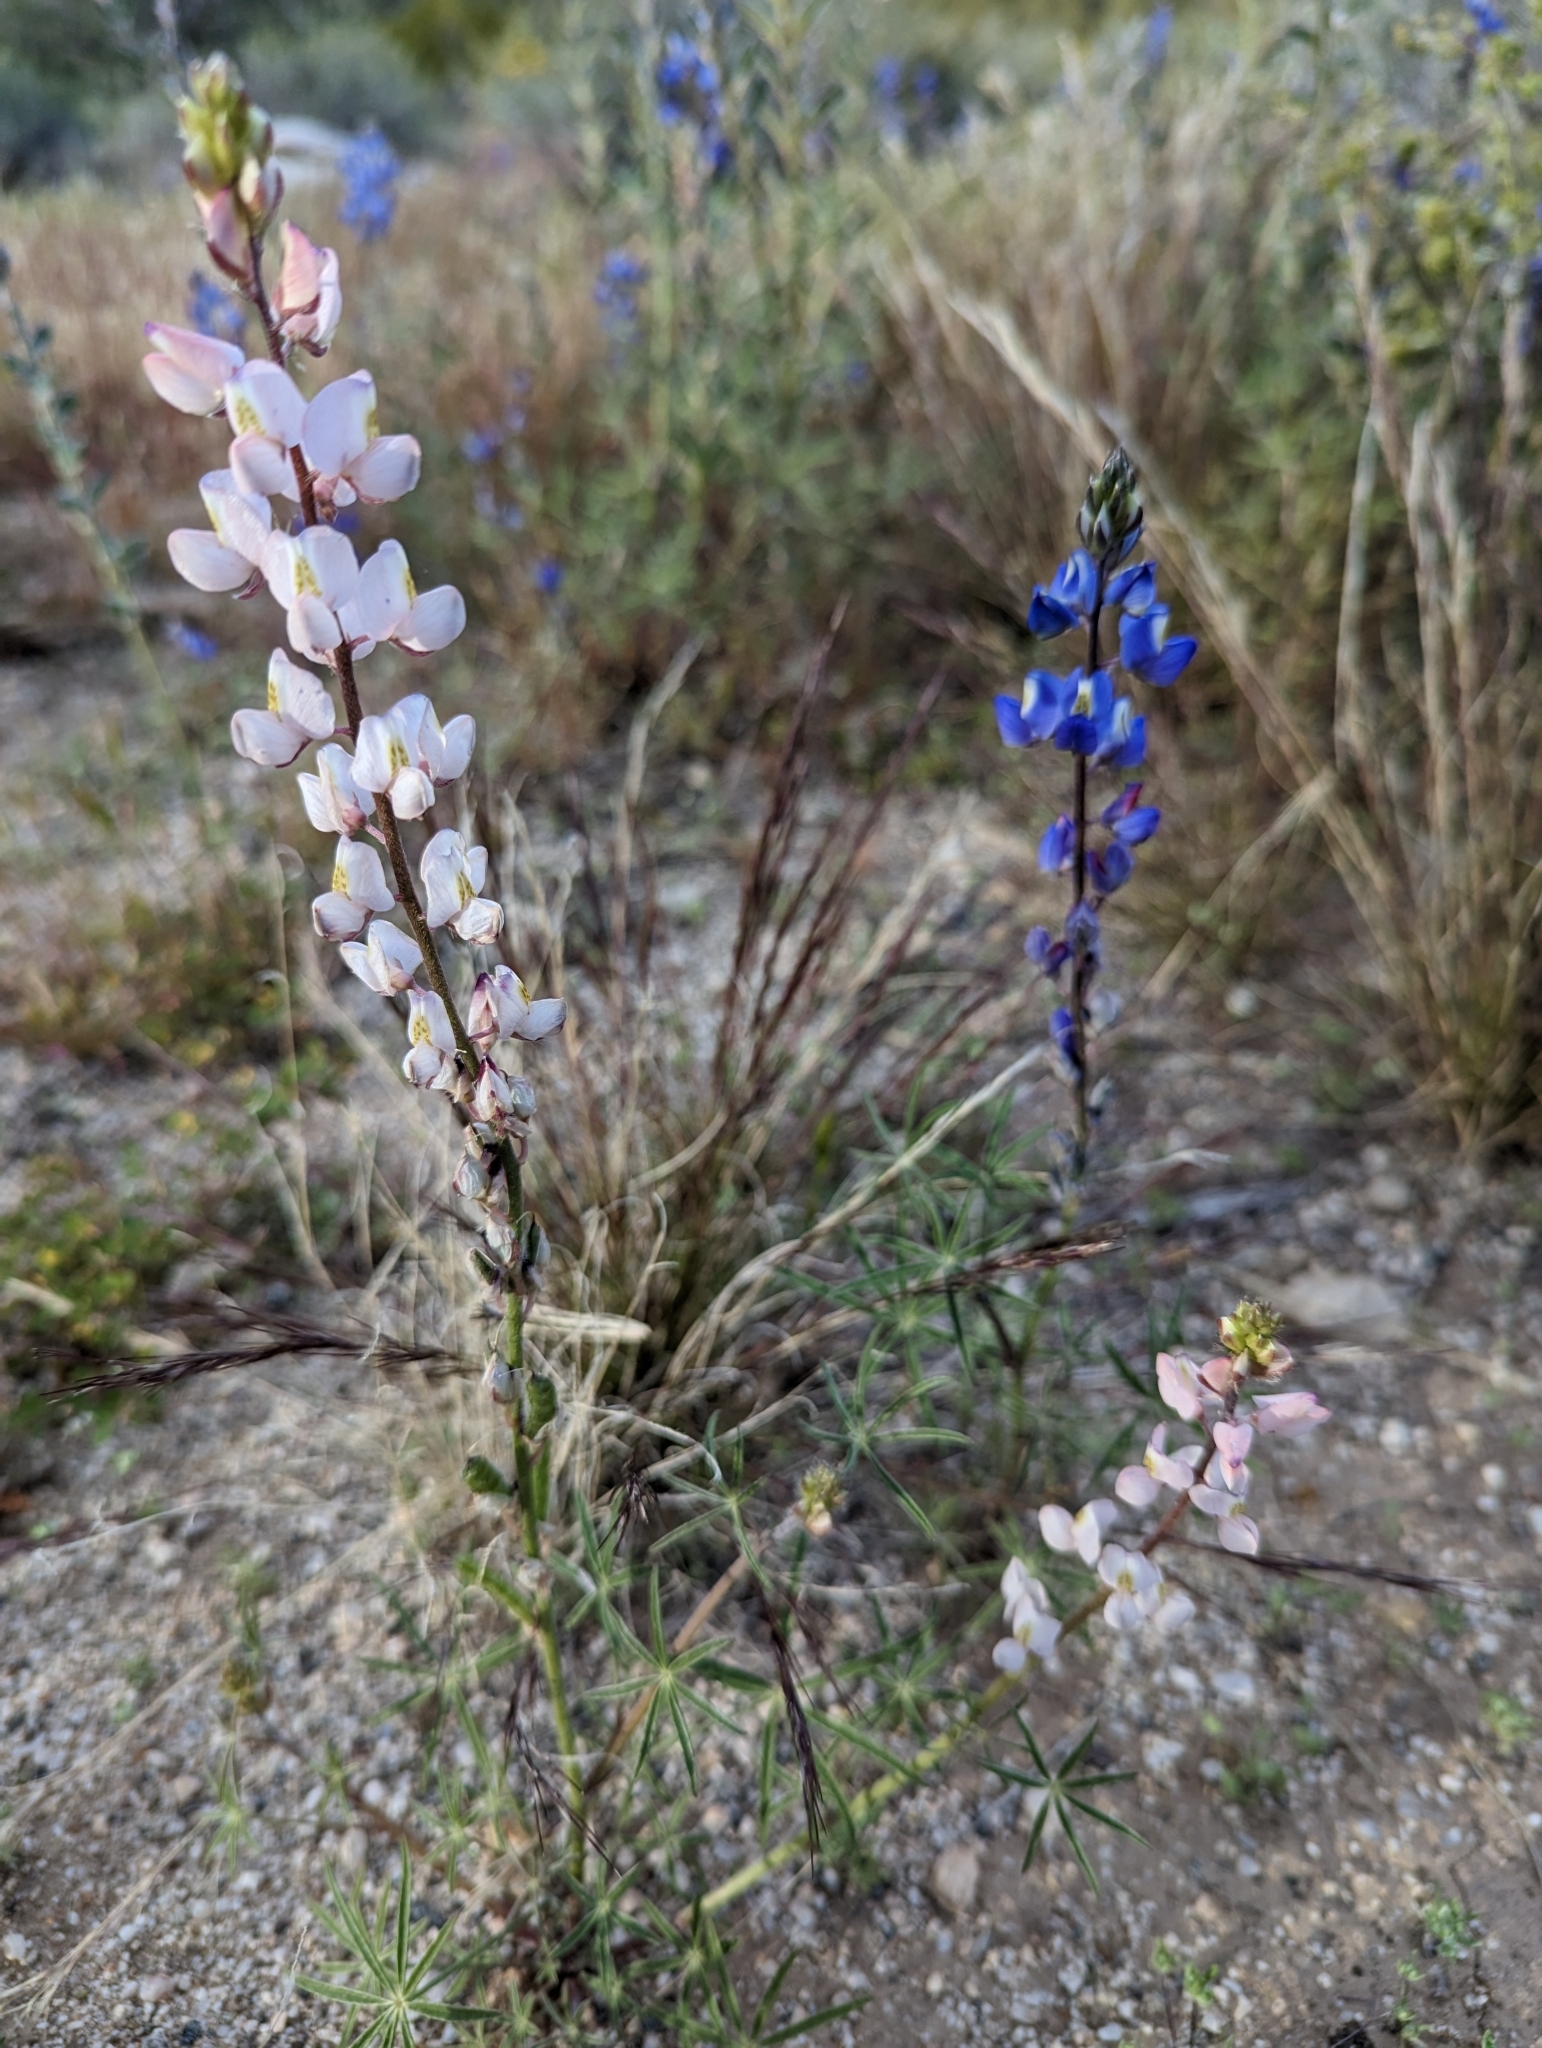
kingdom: Plantae
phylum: Tracheophyta
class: Magnoliopsida
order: Fabales
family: Fabaceae
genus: Lupinus
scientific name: Lupinus sparsiflorus
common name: Coulter's lupine
